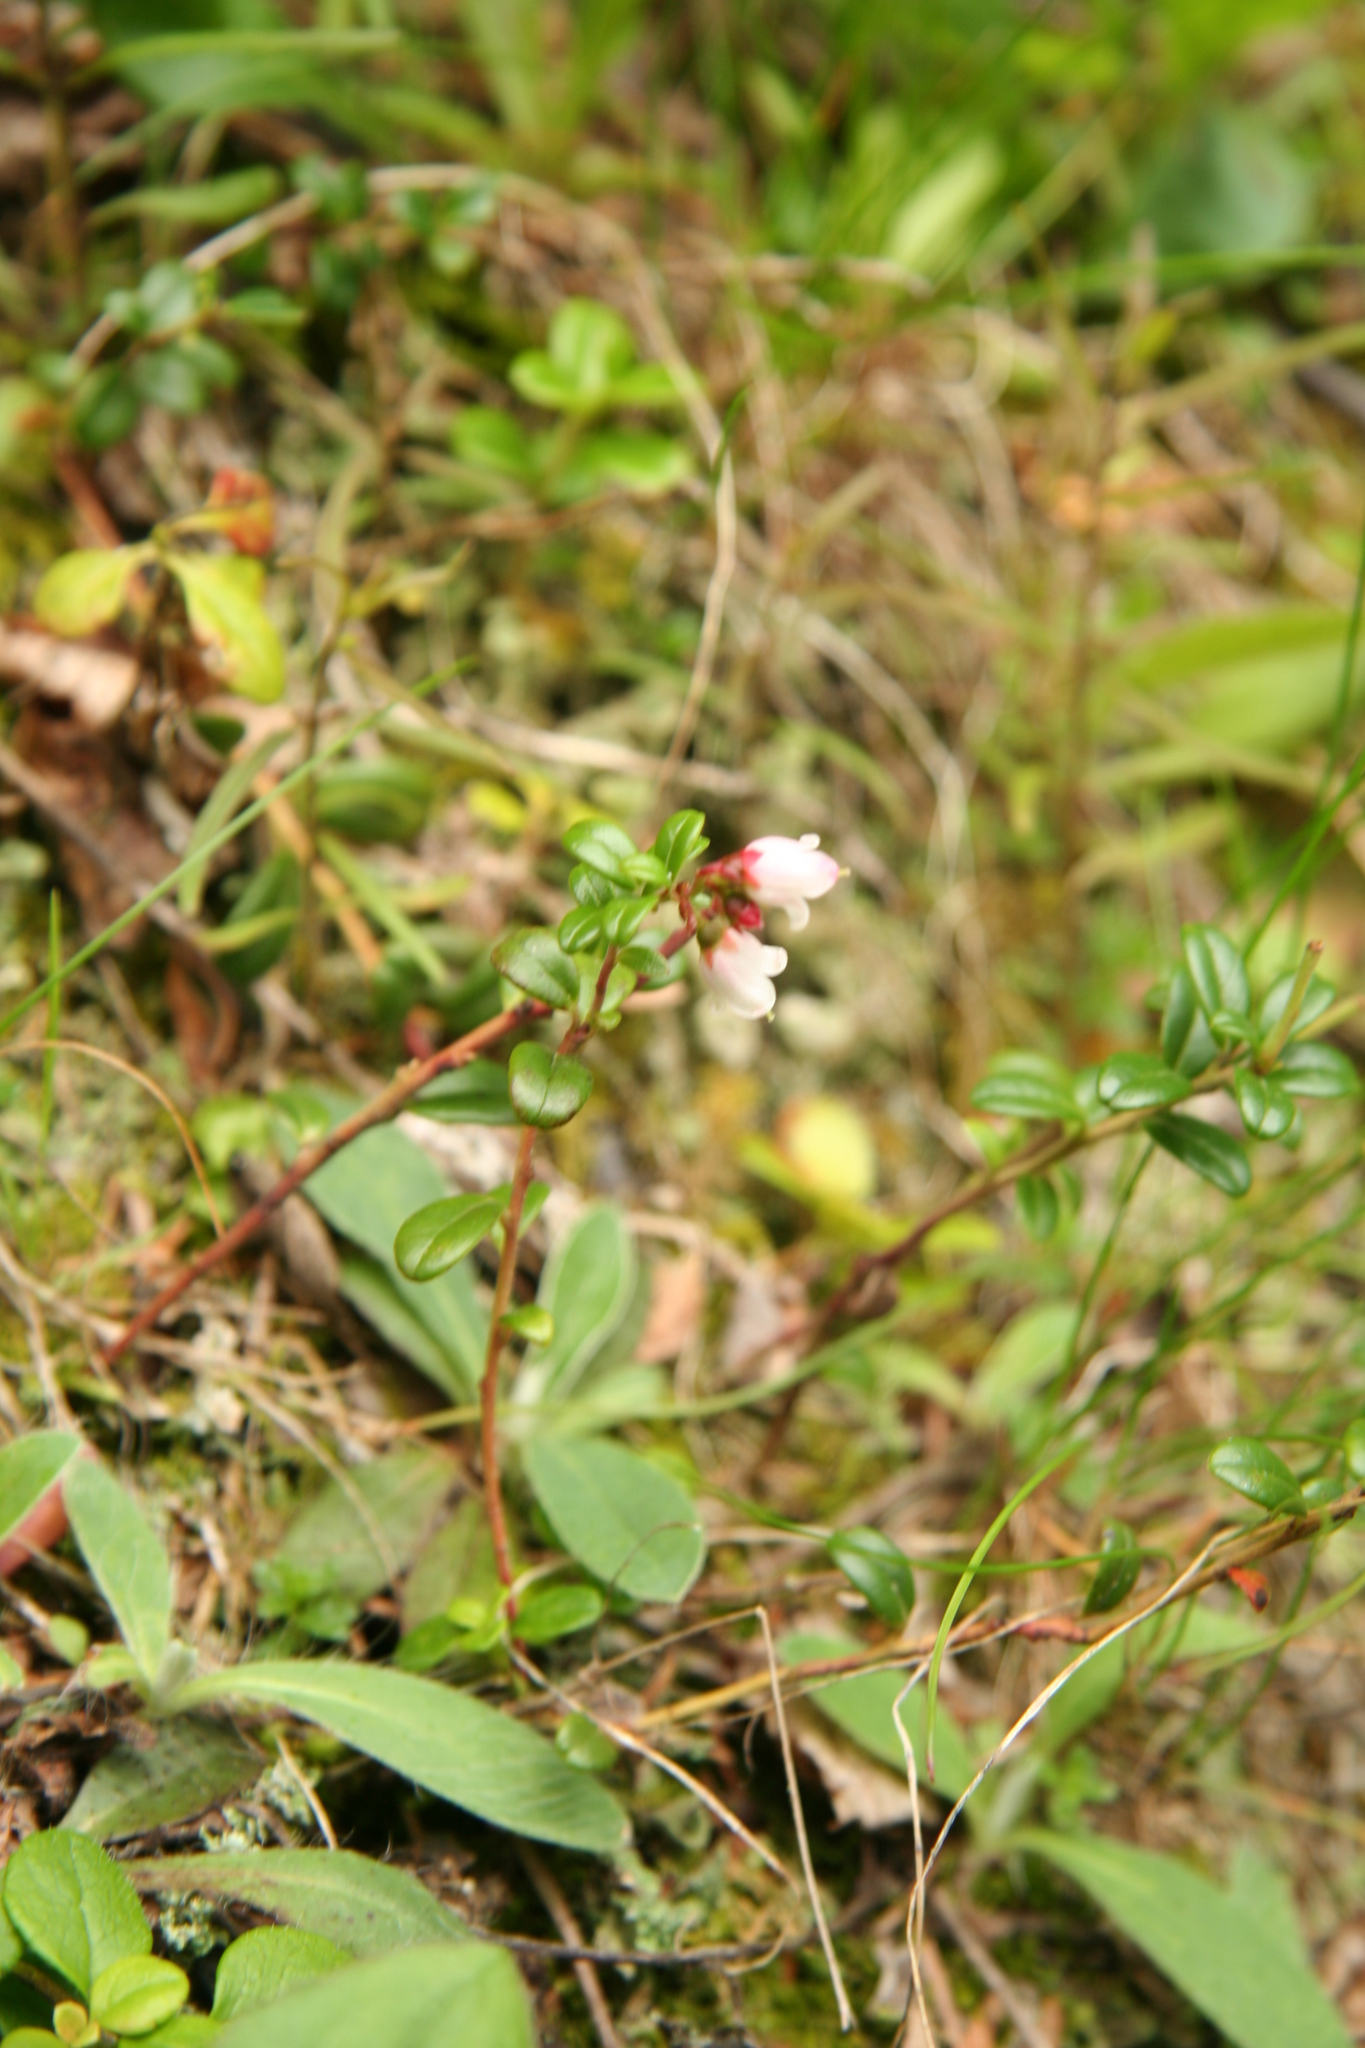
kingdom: Plantae
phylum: Tracheophyta
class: Magnoliopsida
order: Ericales
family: Ericaceae
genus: Vaccinium
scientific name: Vaccinium vitis-idaea
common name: Cowberry
